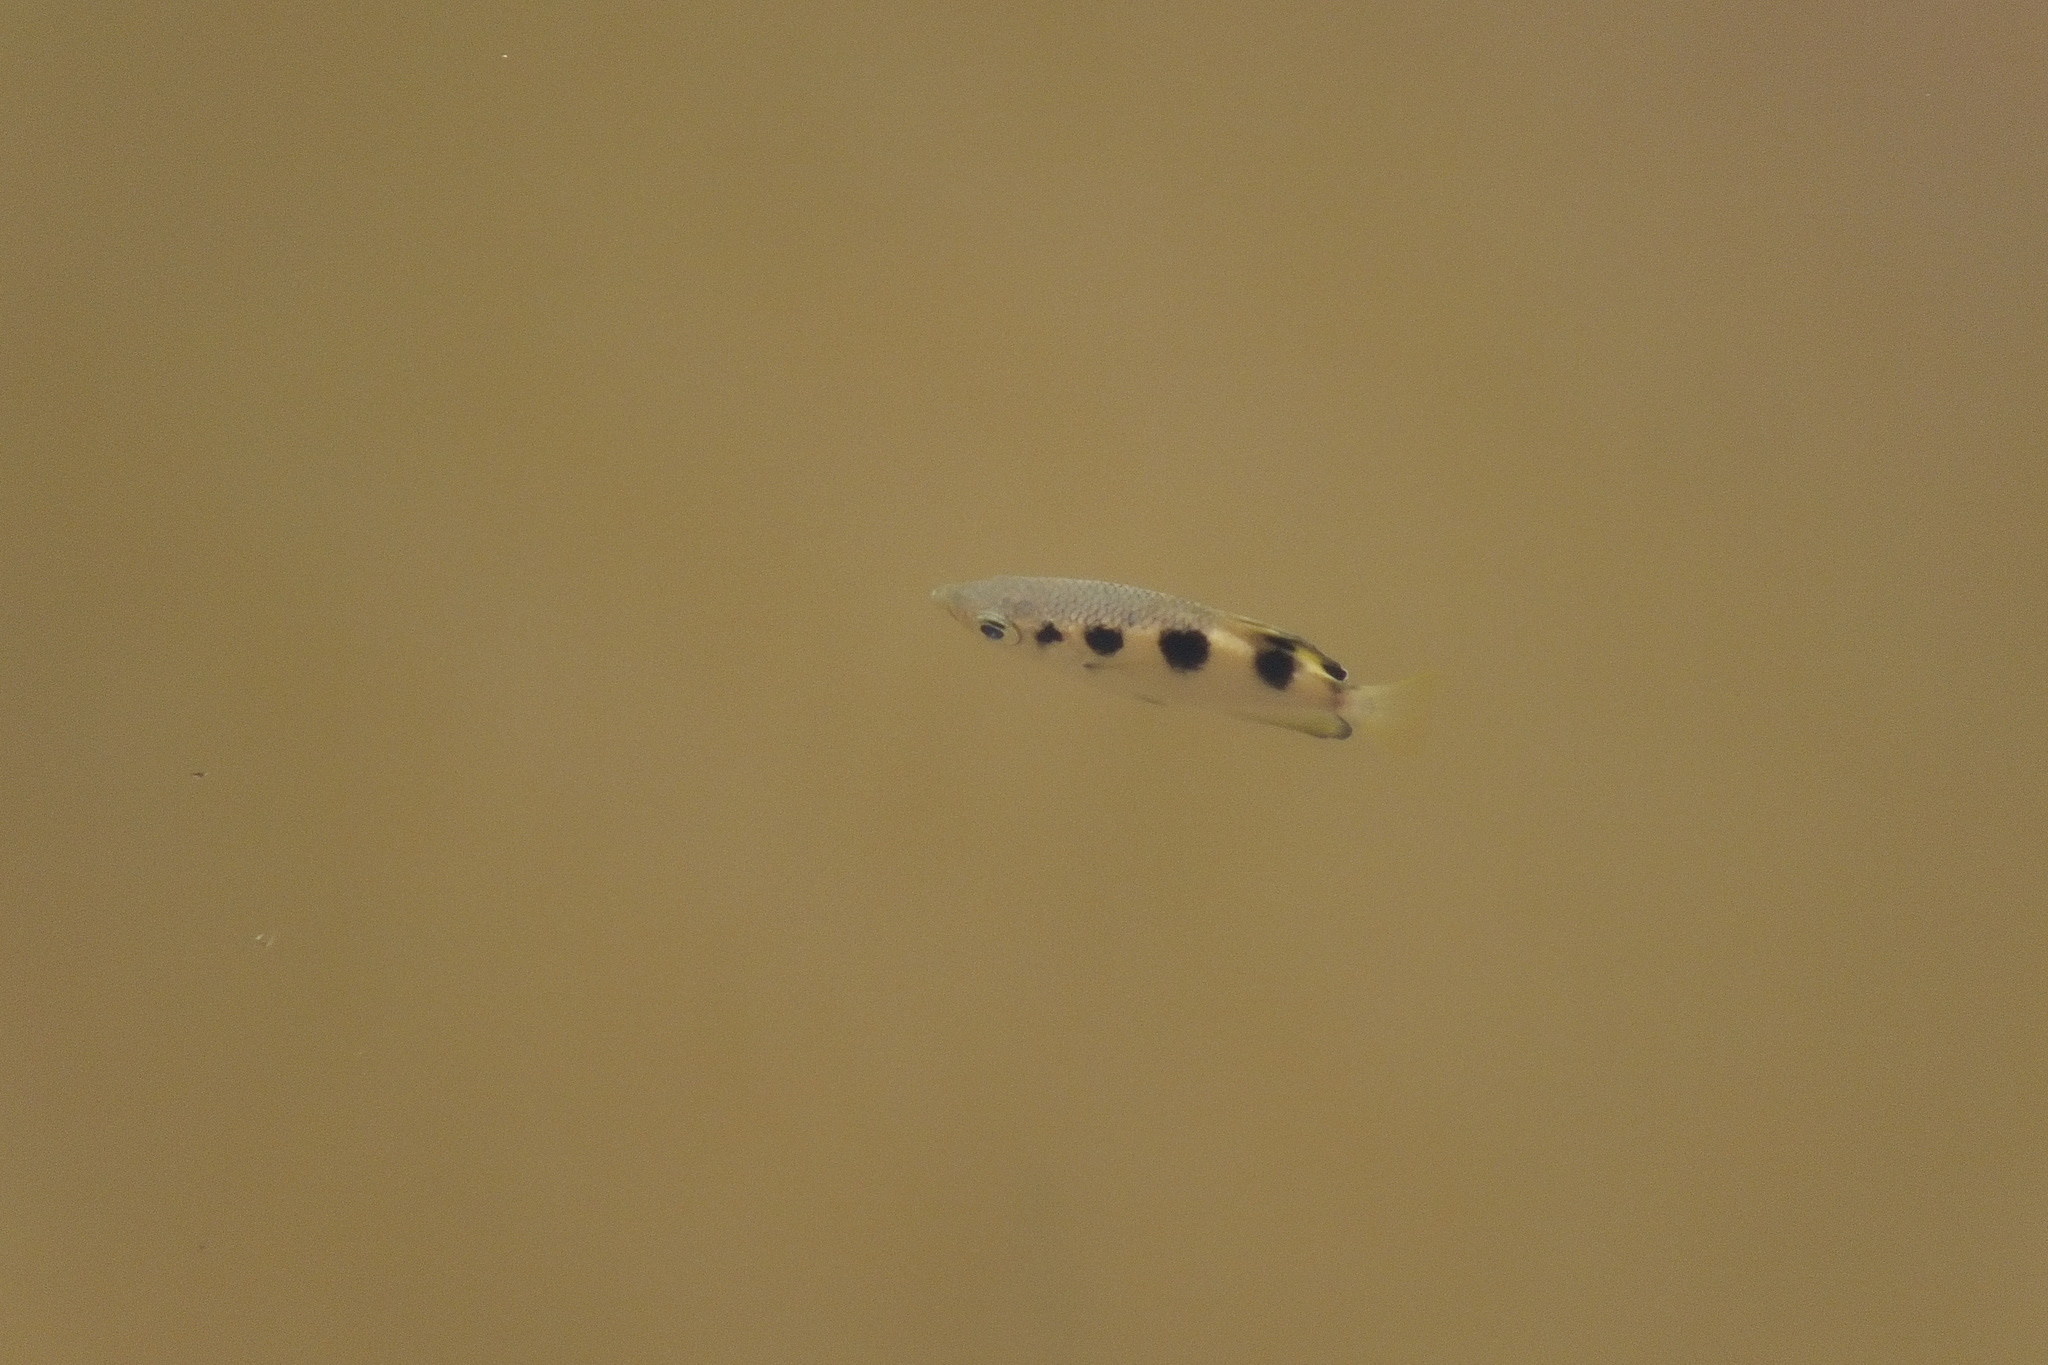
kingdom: Animalia
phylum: Chordata
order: Perciformes
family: Toxotidae
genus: Toxotes
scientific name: Toxotes jaculatrix
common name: Banded archerfish
